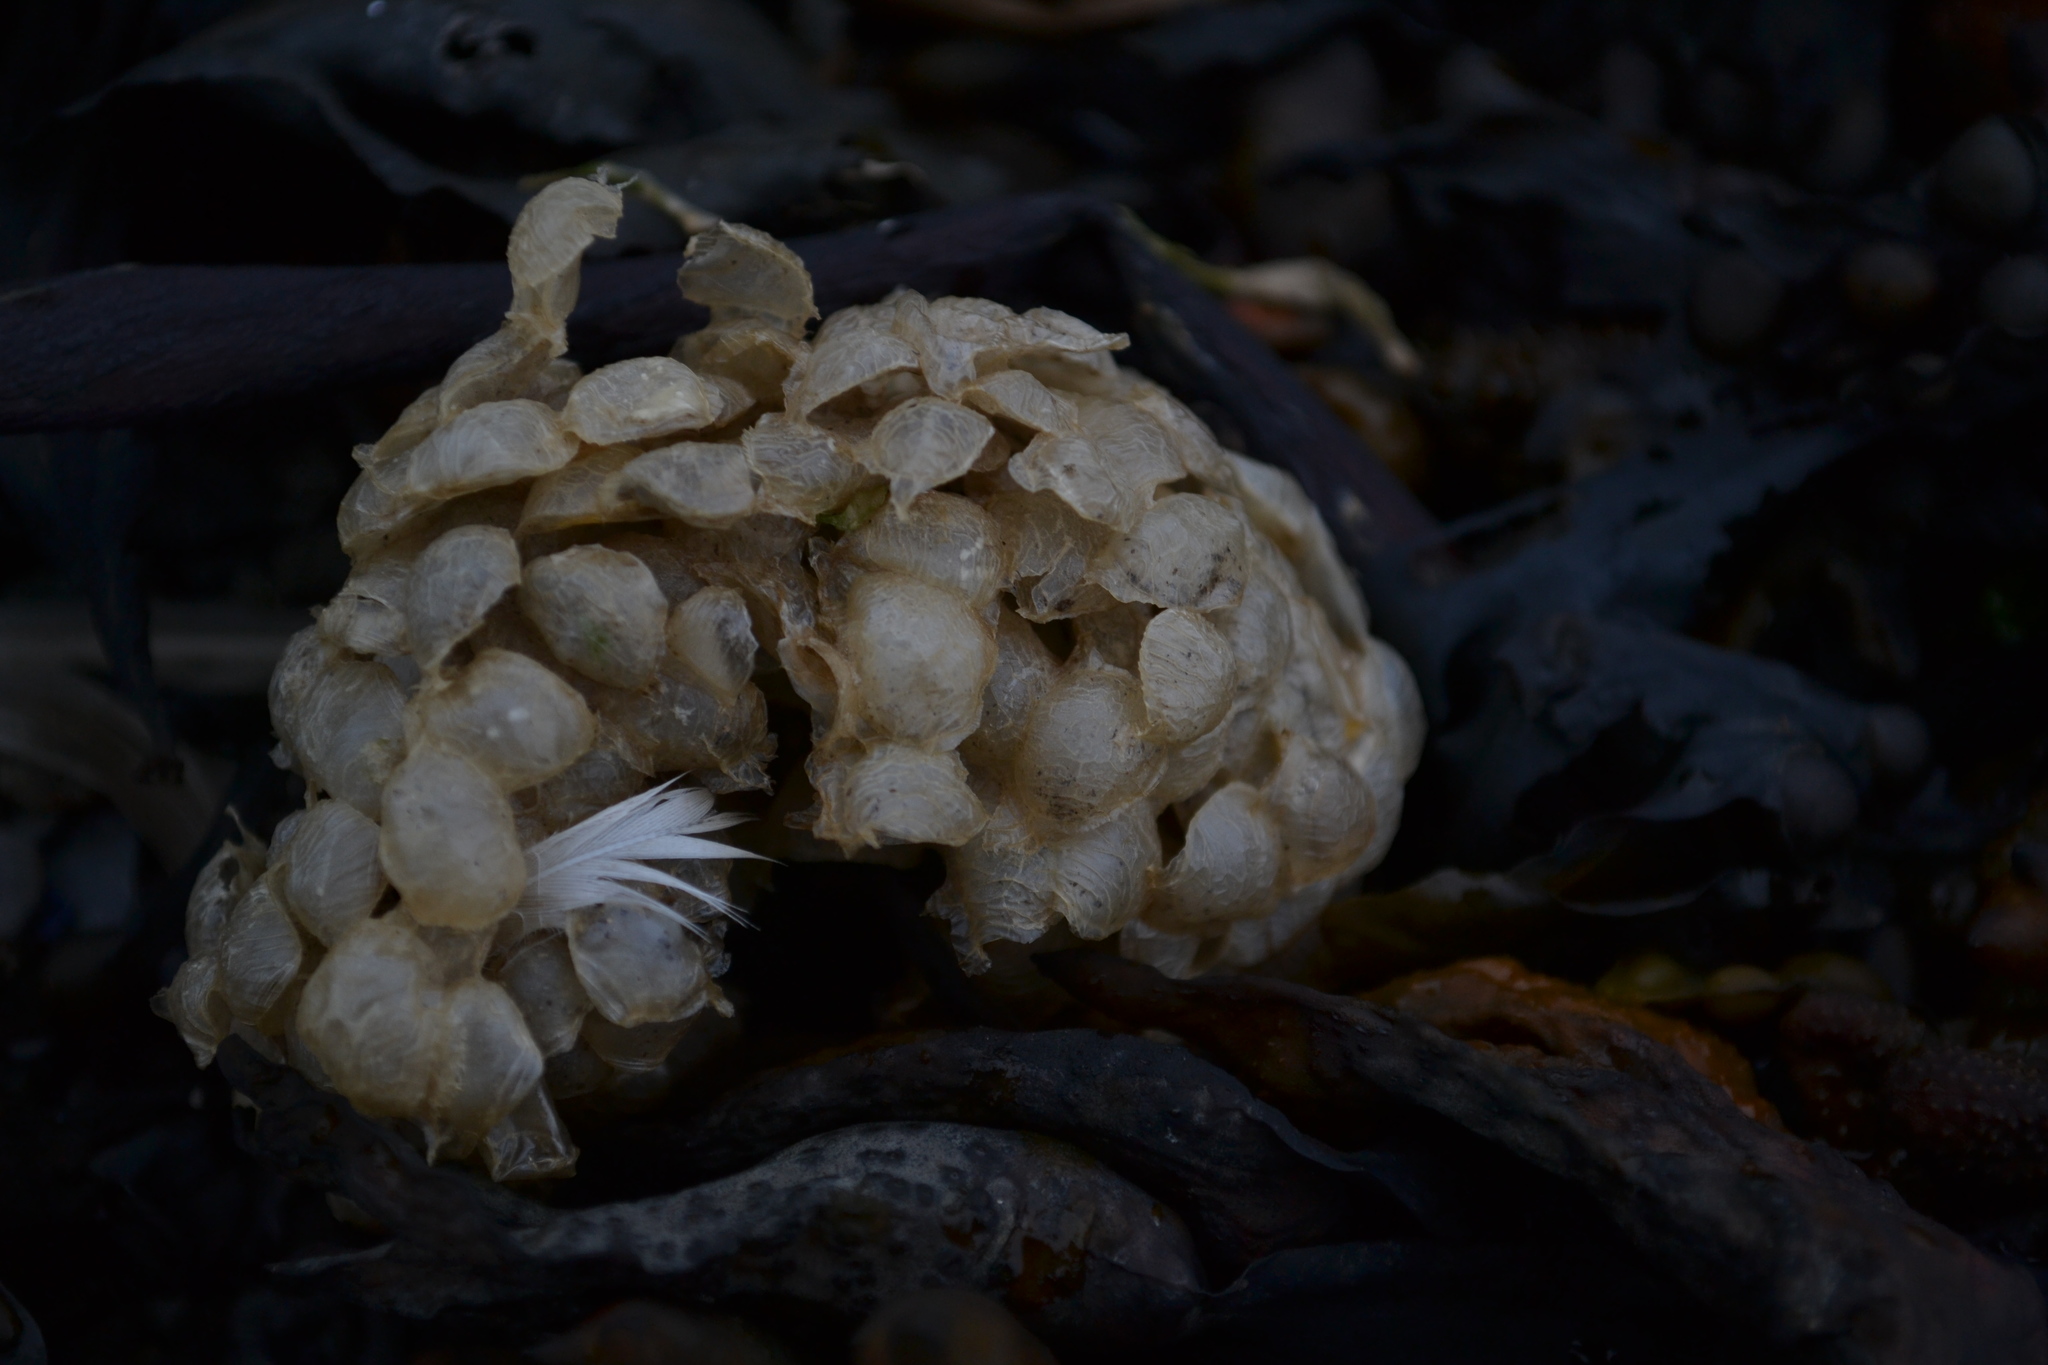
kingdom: Animalia
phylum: Mollusca
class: Gastropoda
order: Neogastropoda
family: Buccinidae
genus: Buccinum
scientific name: Buccinum undatum
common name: Common whelk
